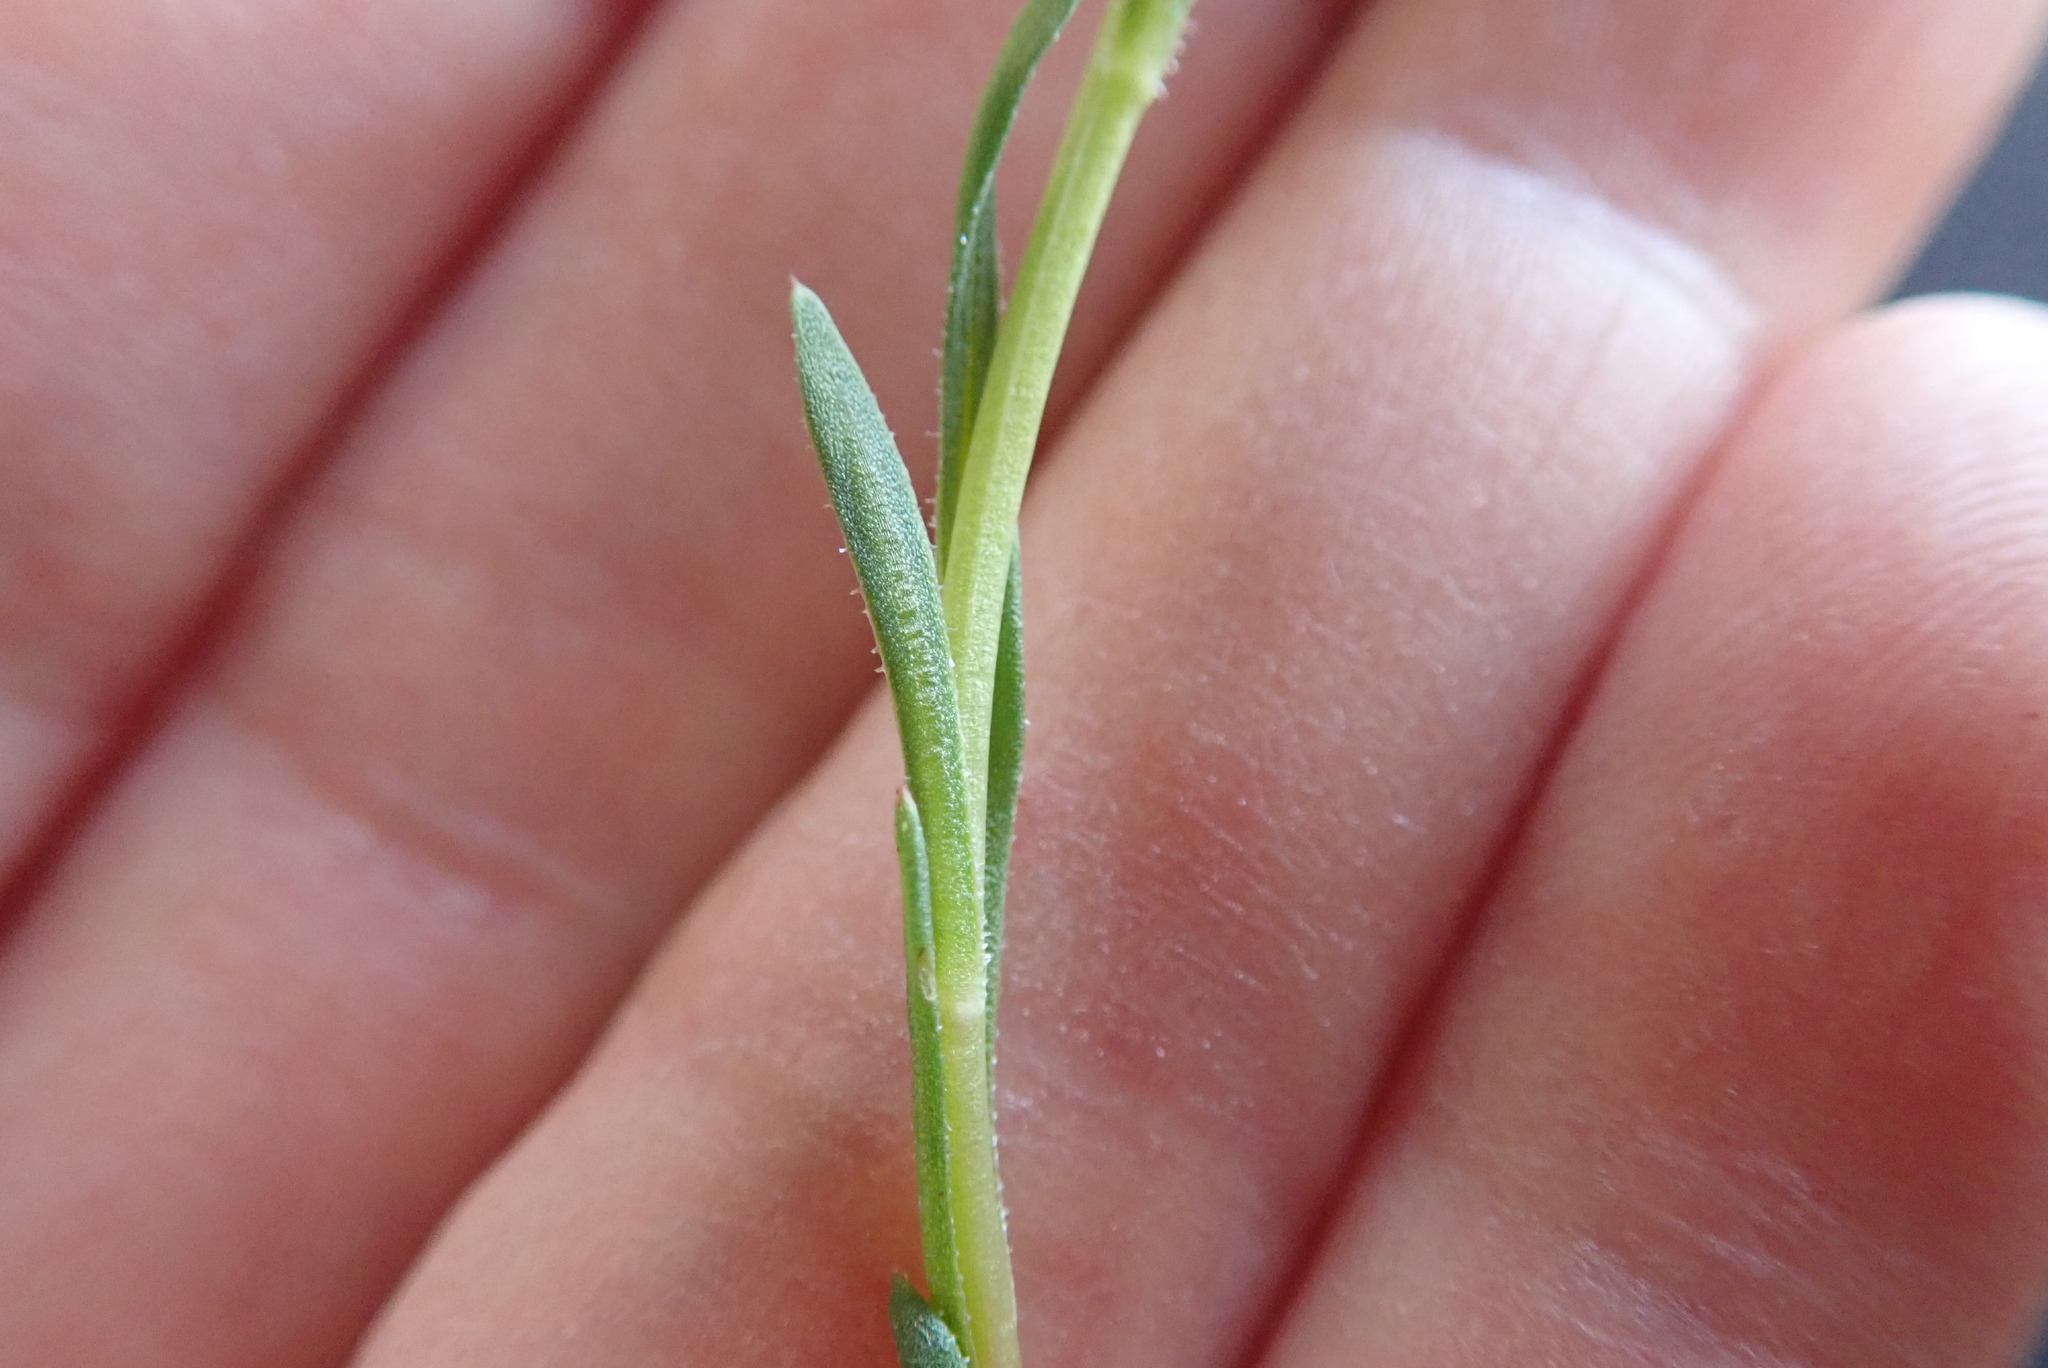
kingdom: Plantae
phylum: Tracheophyta
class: Magnoliopsida
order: Caryophyllales
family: Montiaceae
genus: Calandrinia
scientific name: Calandrinia menziesii
